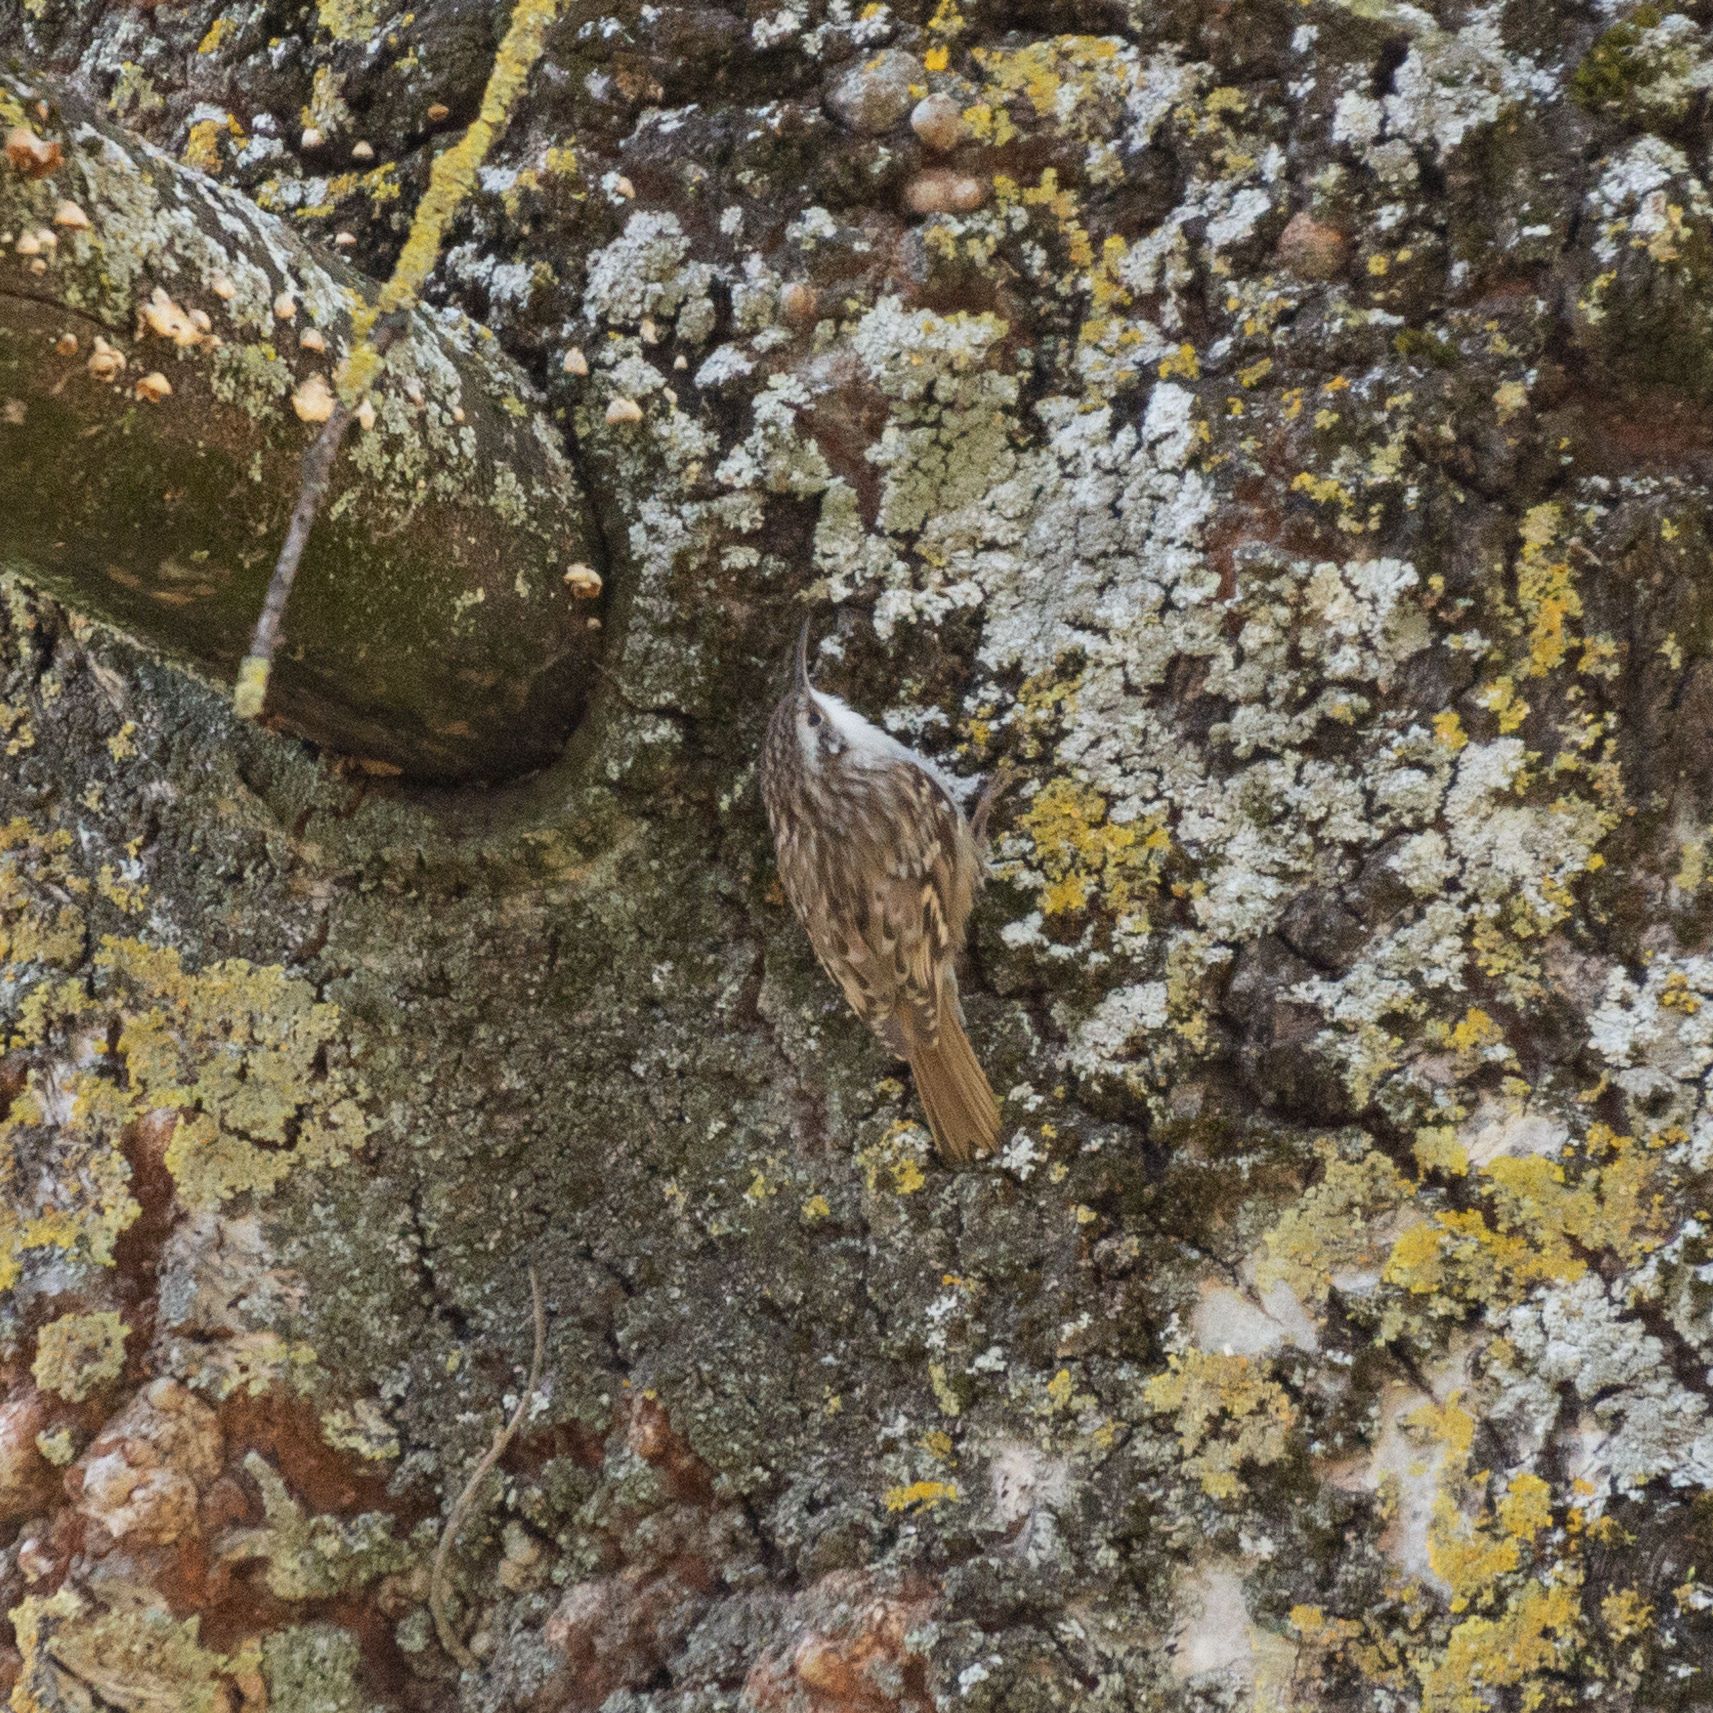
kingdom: Animalia
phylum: Chordata
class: Aves
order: Passeriformes
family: Certhiidae
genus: Certhia
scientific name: Certhia brachydactyla
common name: Short-toed treecreeper
